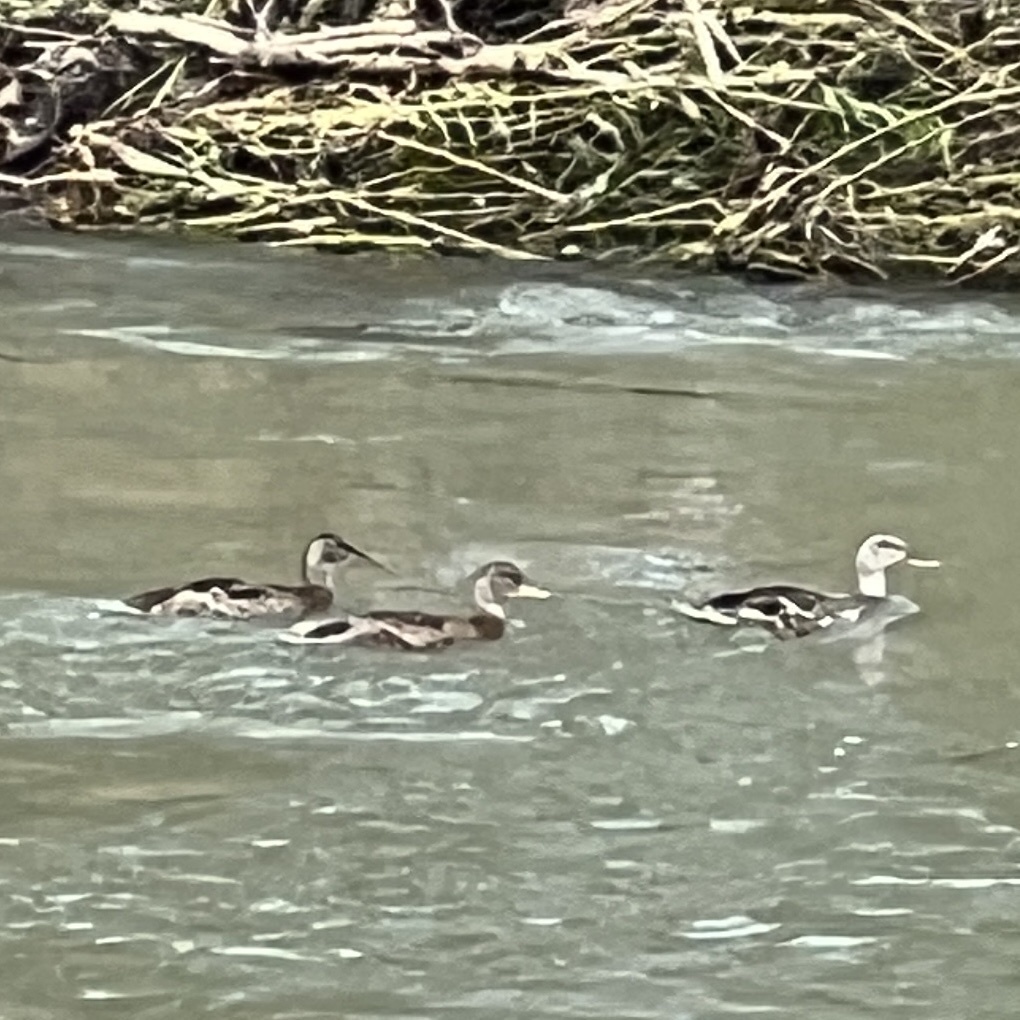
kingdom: Animalia
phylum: Chordata
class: Aves
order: Anseriformes
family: Anatidae
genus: Anas
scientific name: Anas platyrhynchos
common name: Mallard
